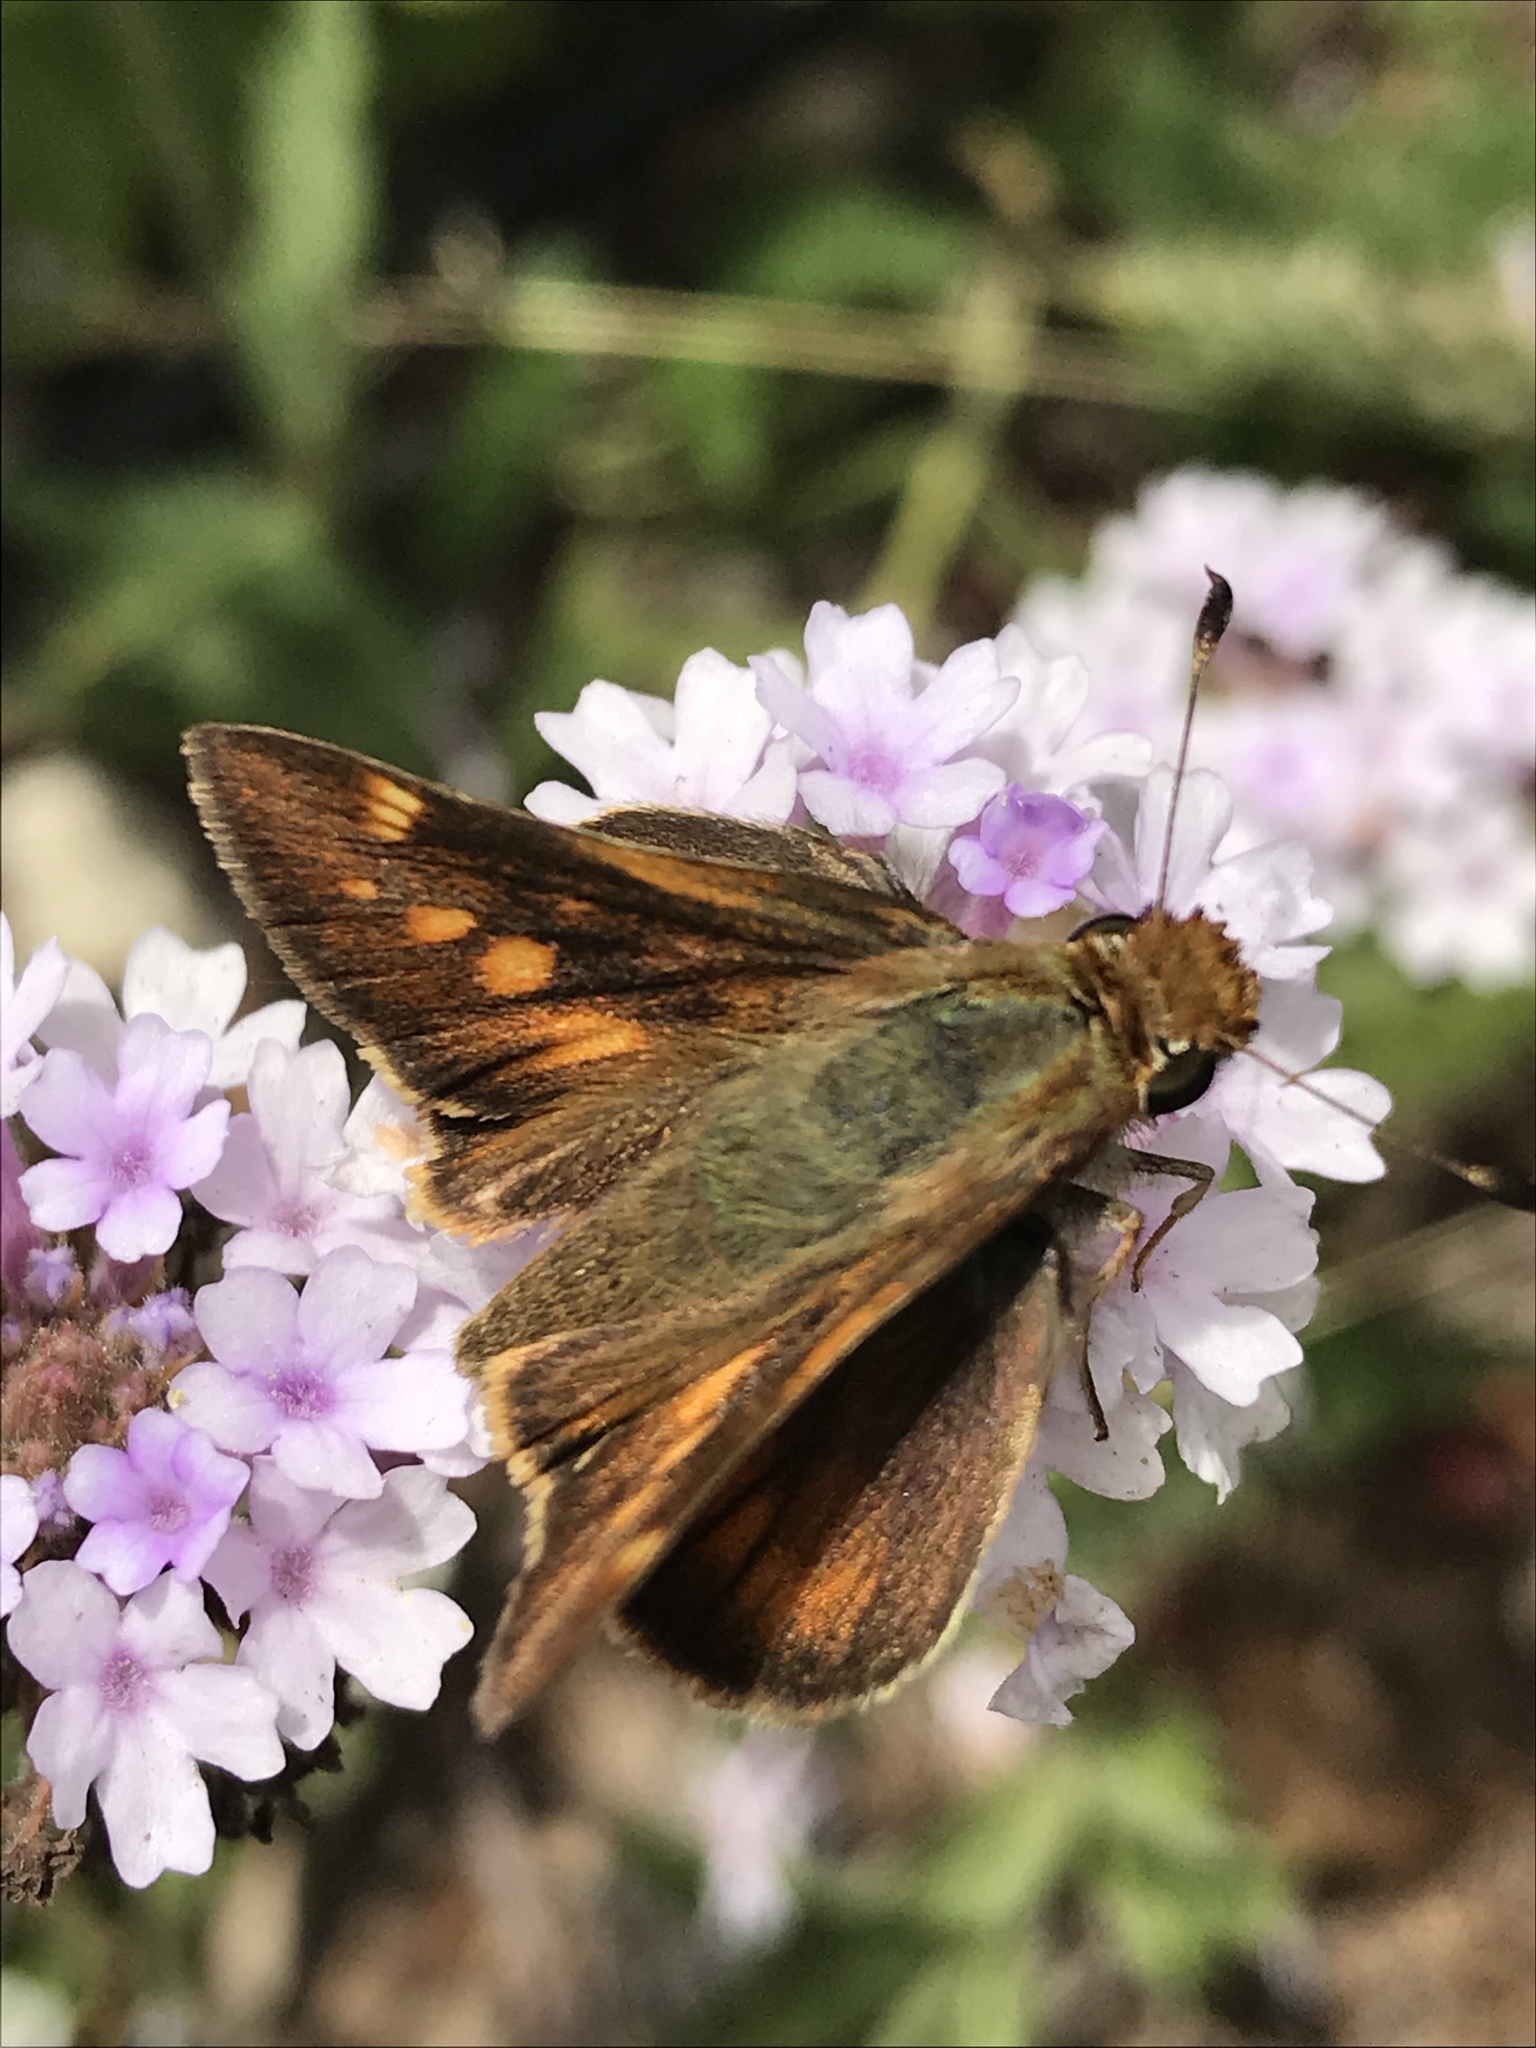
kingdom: Animalia
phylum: Arthropoda
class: Insecta
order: Lepidoptera
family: Hesperiidae
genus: Lon
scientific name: Lon melane
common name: Umber skipper
